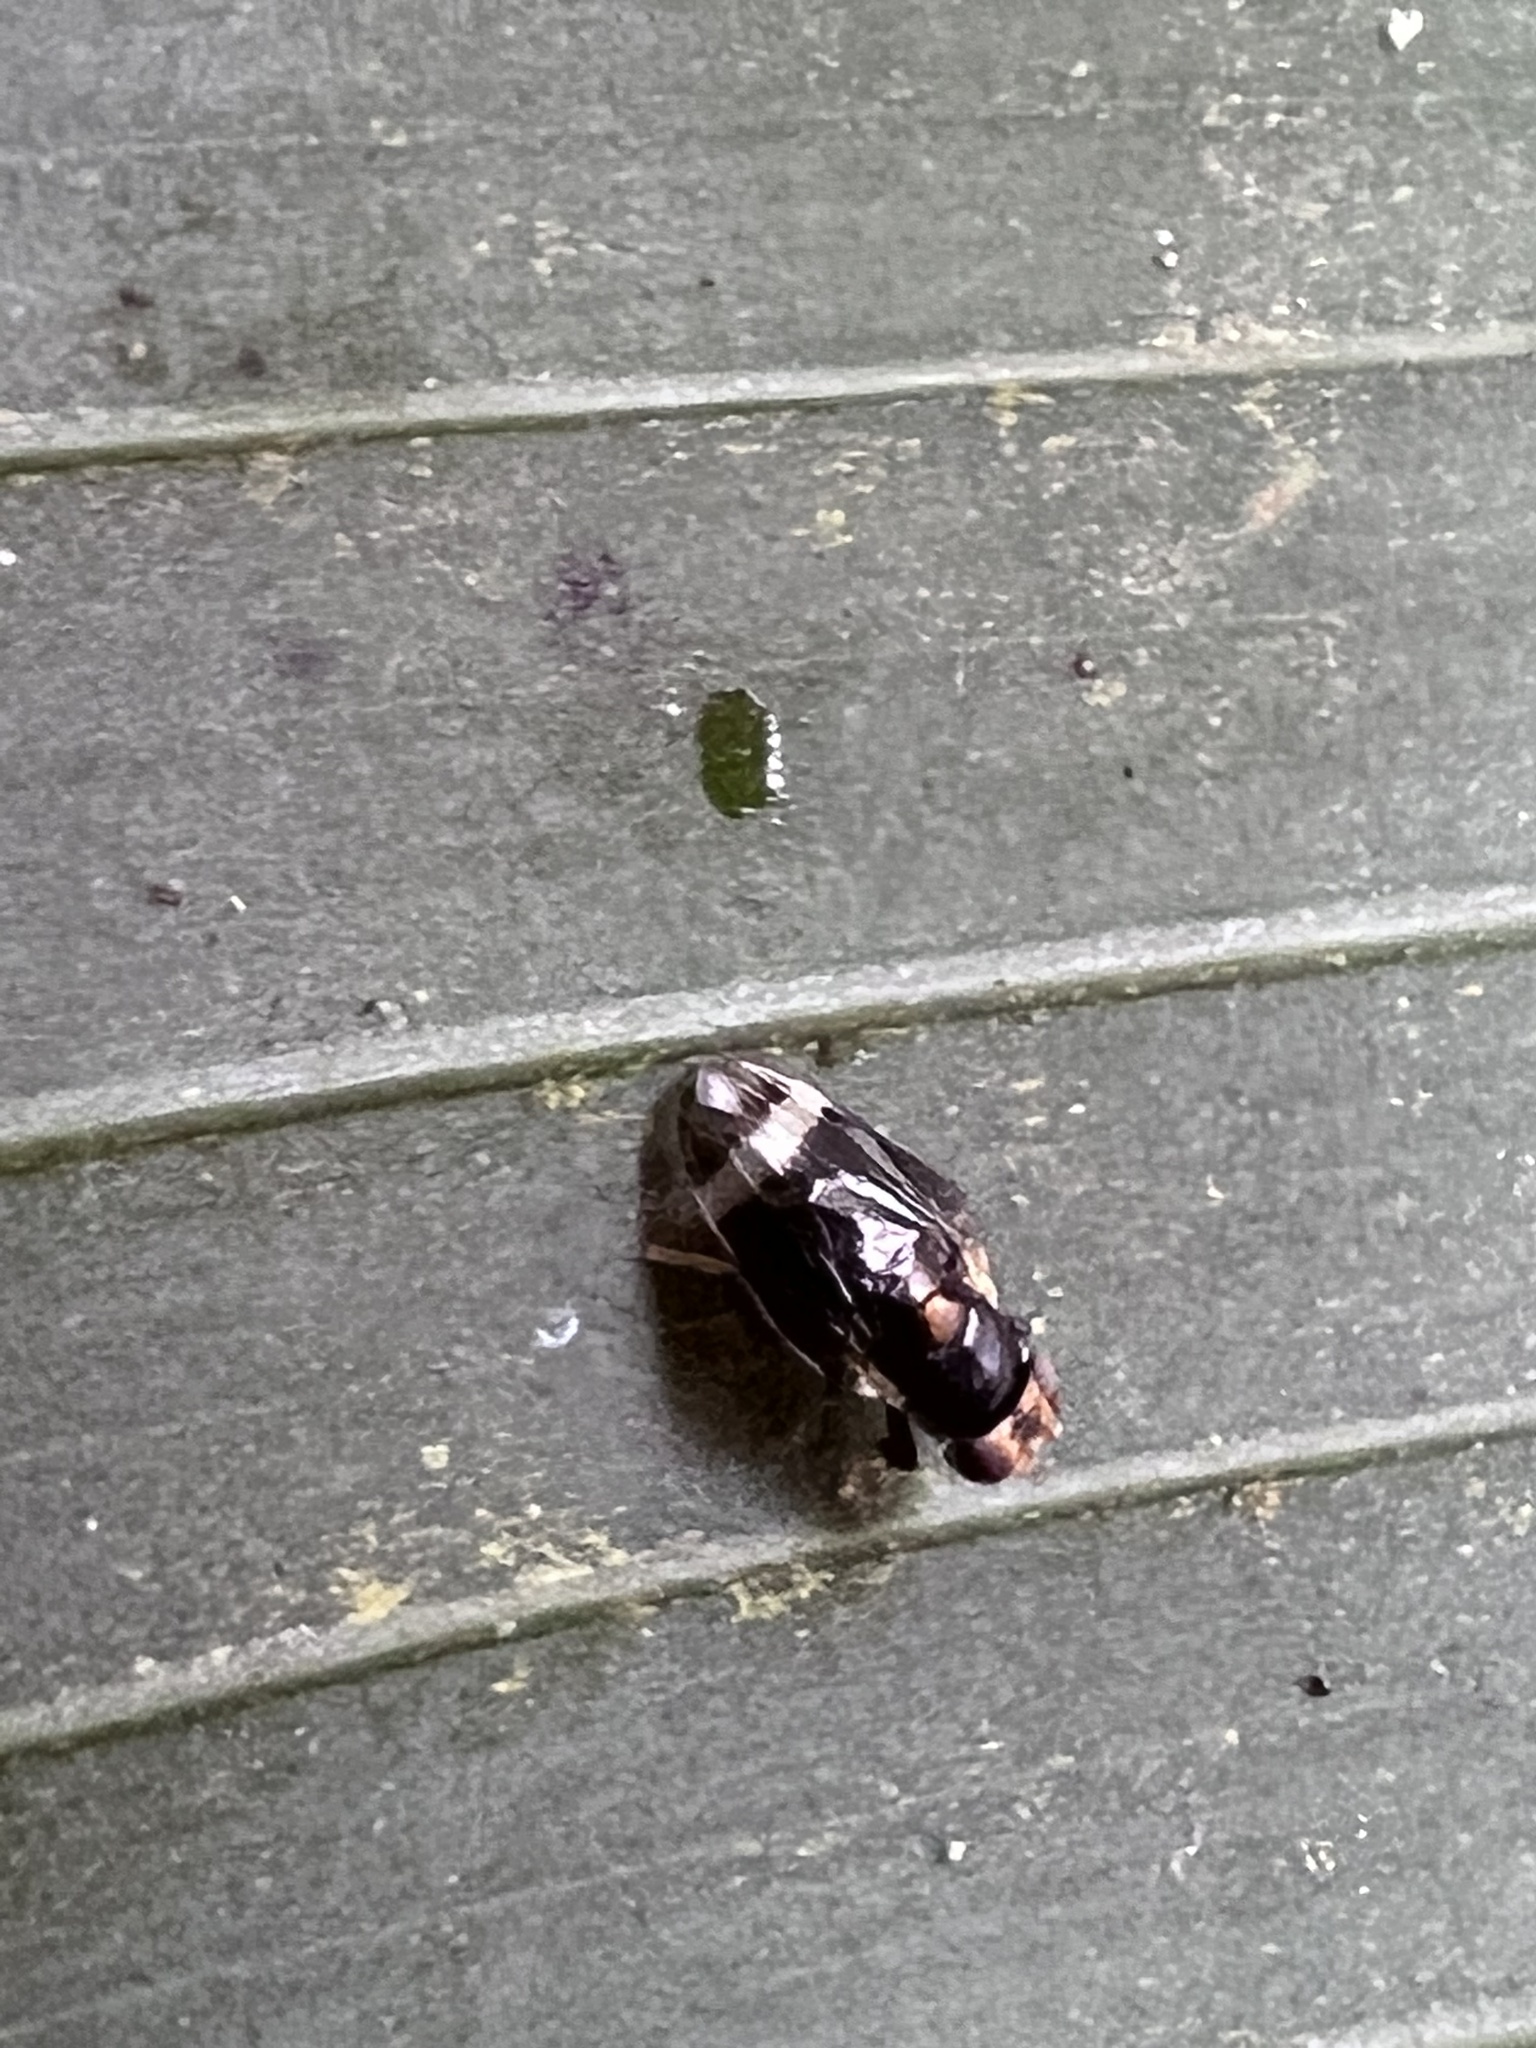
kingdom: Animalia
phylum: Arthropoda
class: Insecta
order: Diptera
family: Periscelididae
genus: Scutops
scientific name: Scutops spinophallus
